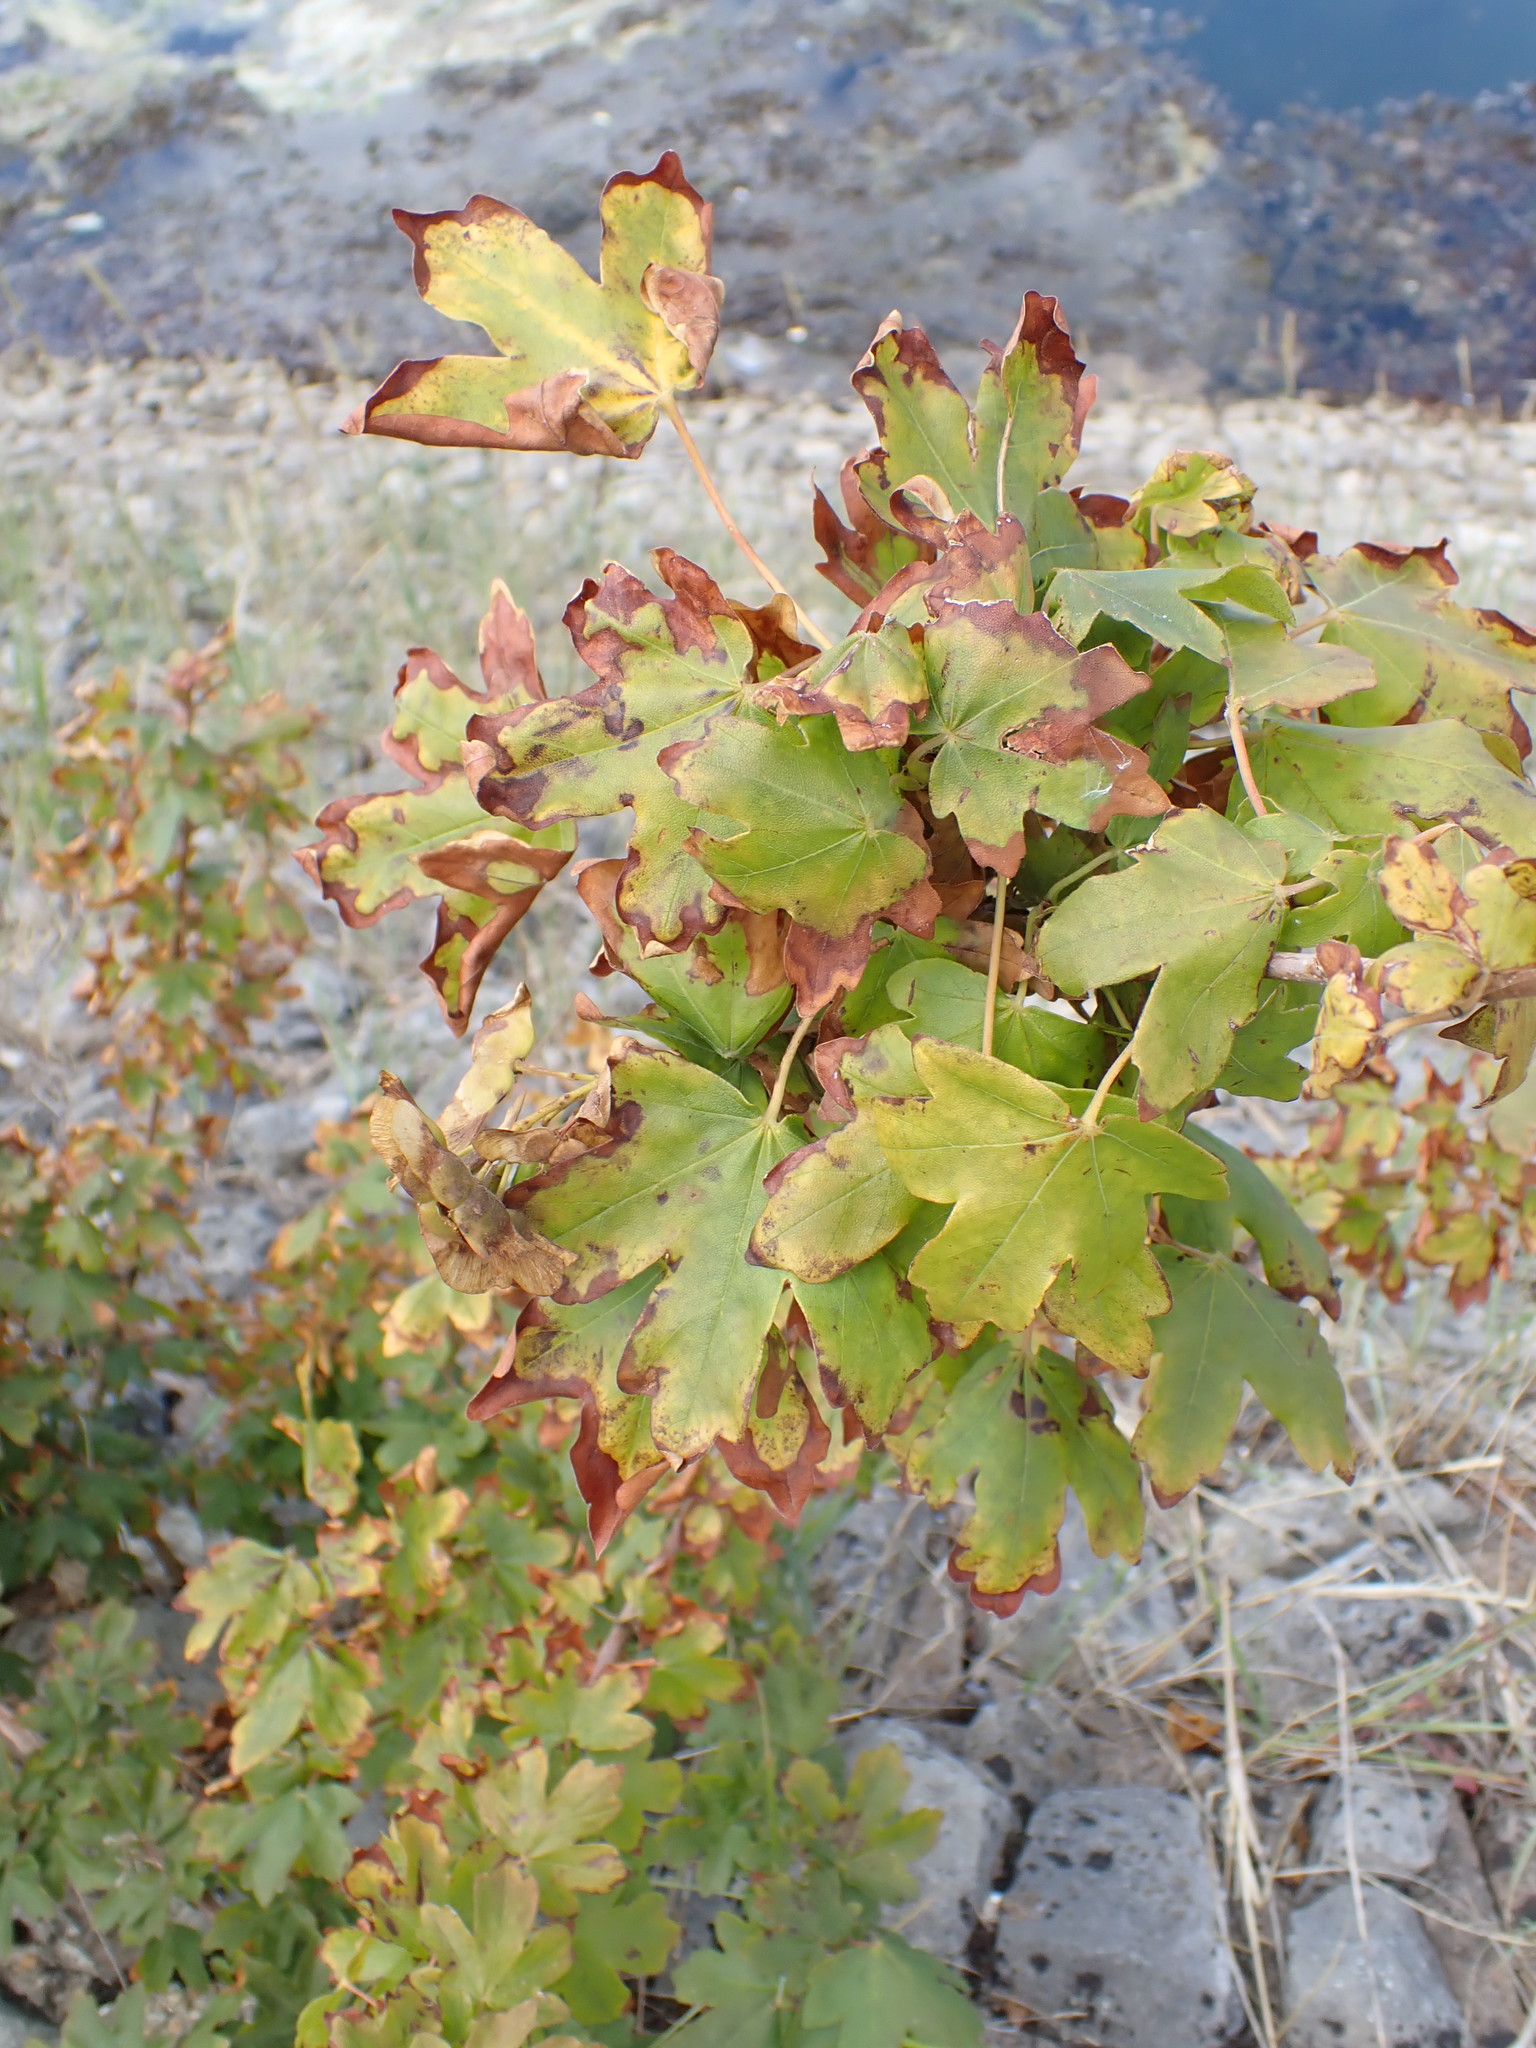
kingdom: Plantae
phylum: Tracheophyta
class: Magnoliopsida
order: Sapindales
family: Sapindaceae
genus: Acer
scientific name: Acer campestre
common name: Field maple
